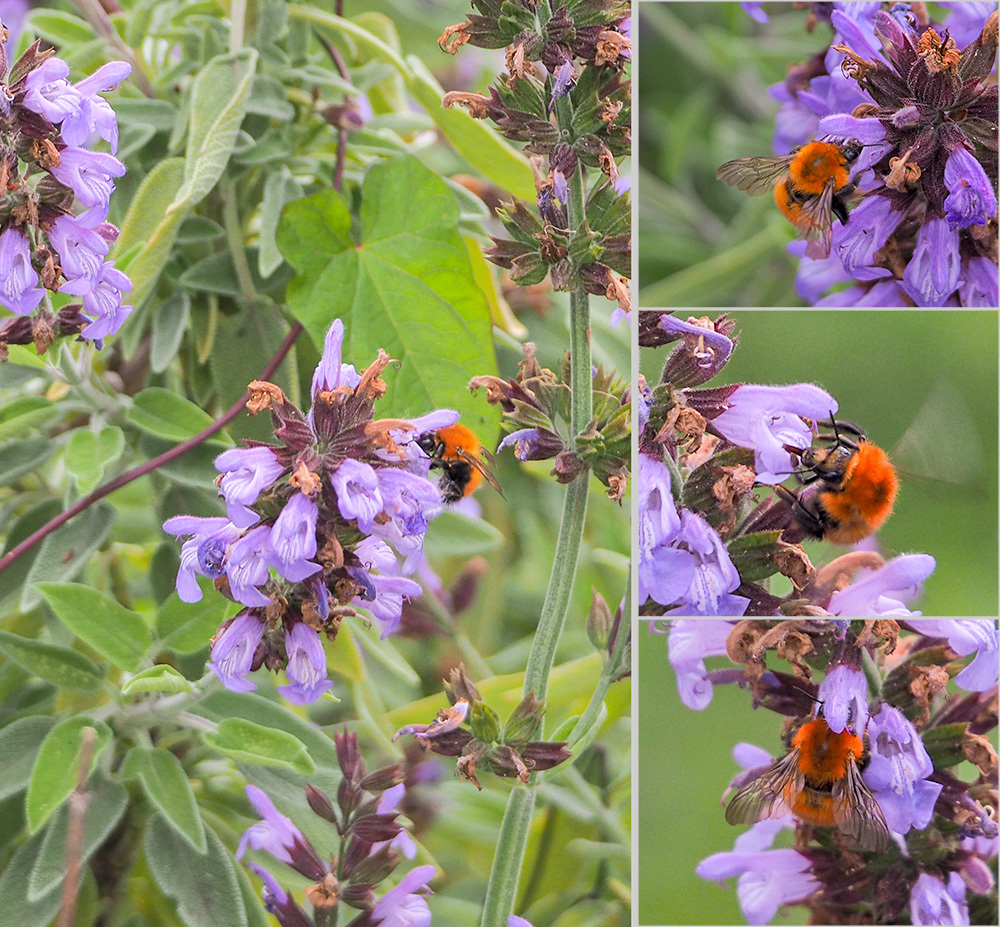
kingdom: Animalia
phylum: Arthropoda
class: Insecta
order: Hymenoptera
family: Apidae
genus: Bombus
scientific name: Bombus pascuorum
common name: Common carder bee
